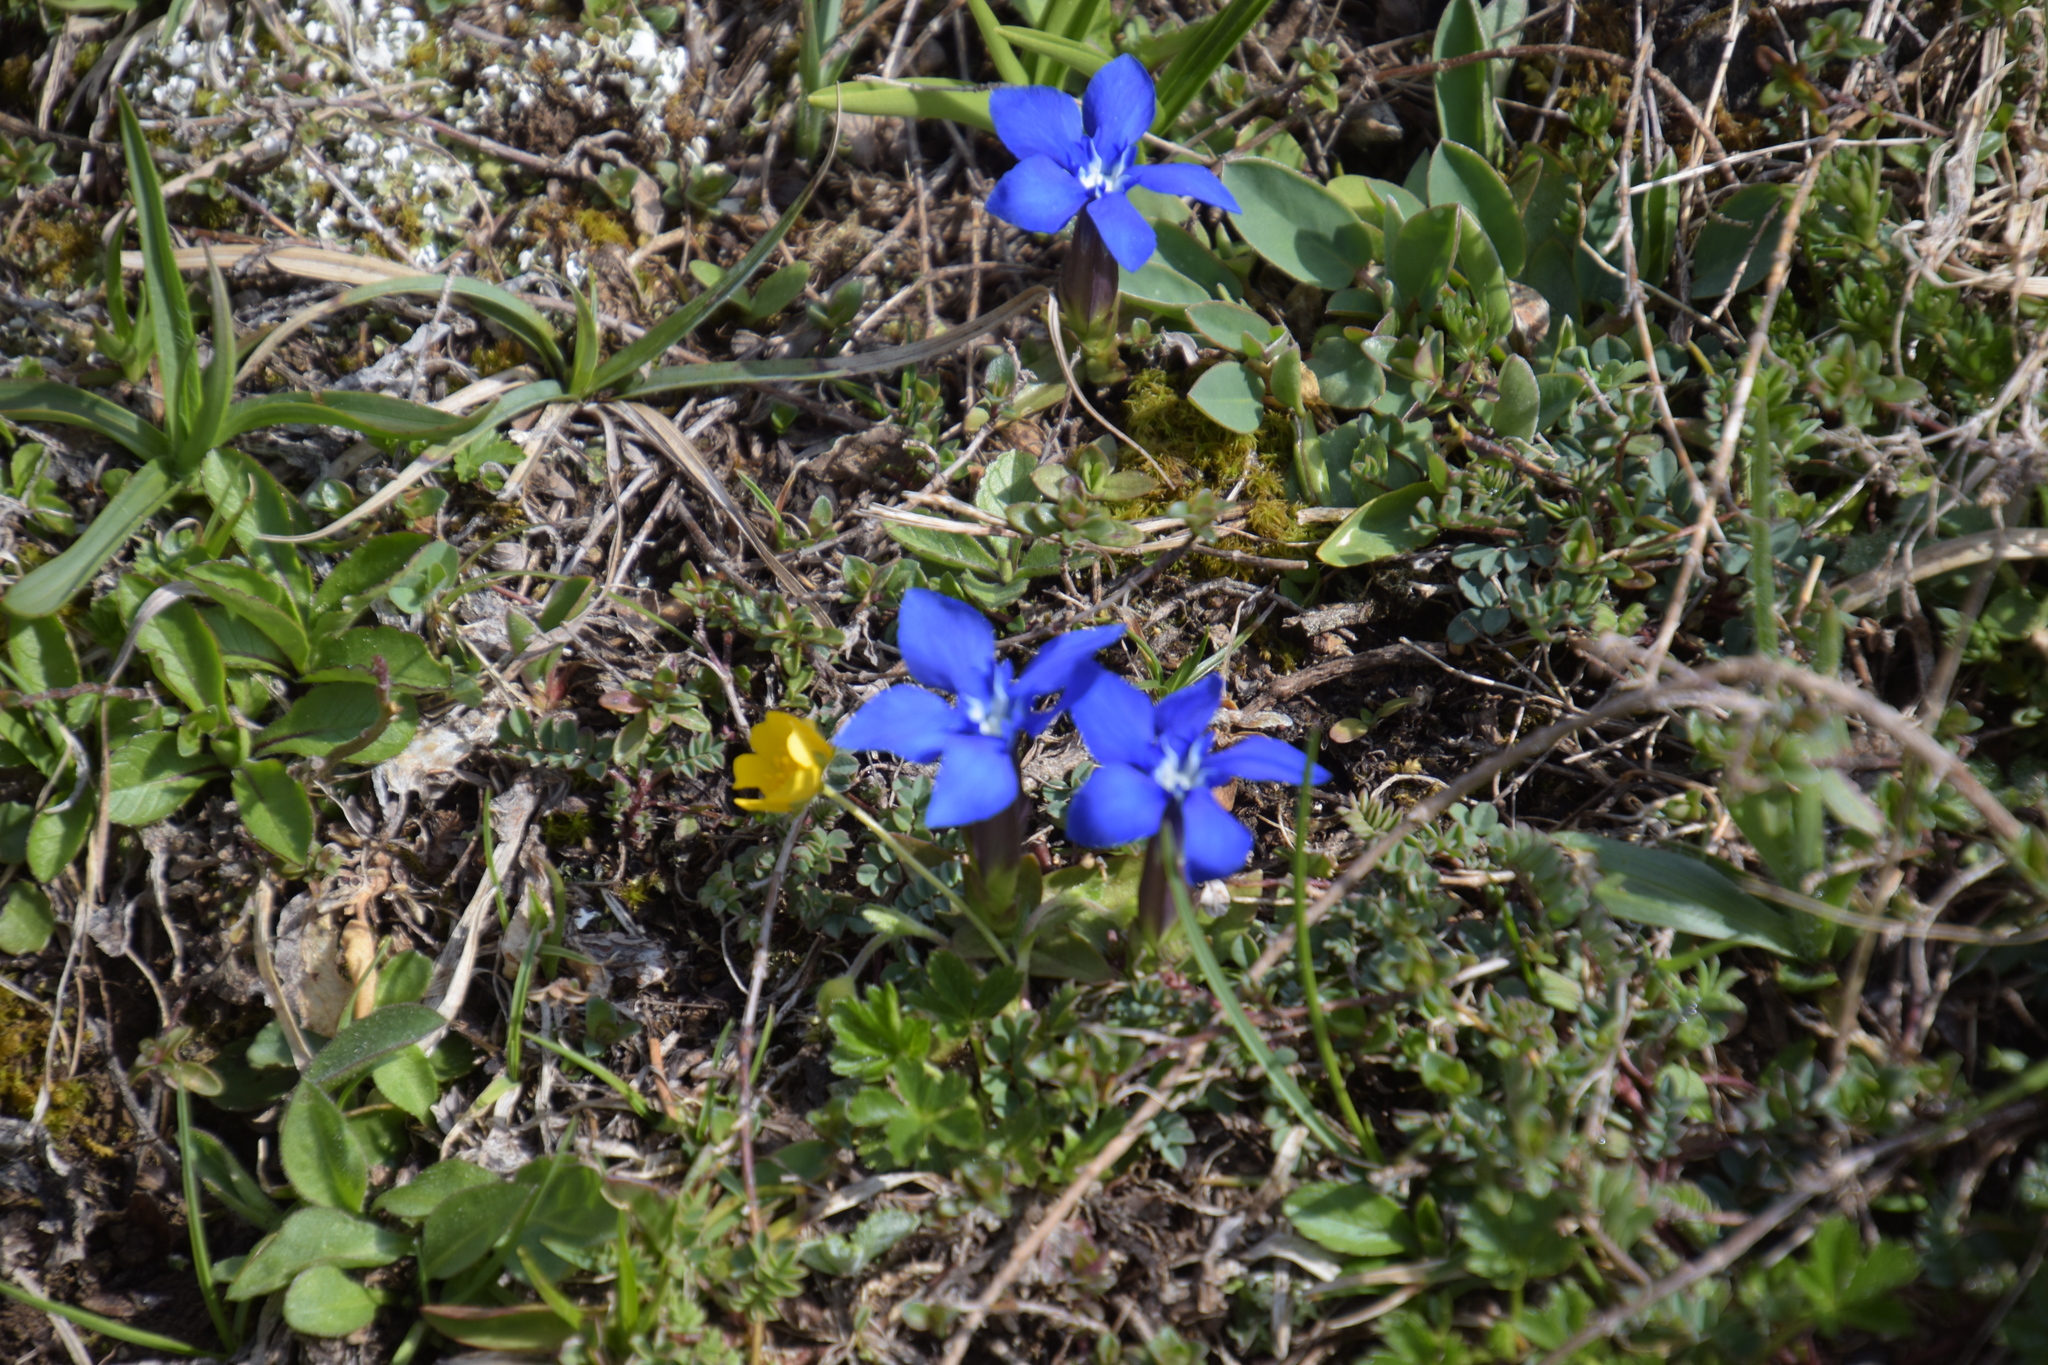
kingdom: Plantae
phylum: Tracheophyta
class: Magnoliopsida
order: Gentianales
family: Gentianaceae
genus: Gentiana
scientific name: Gentiana verna
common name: Spring gentian
